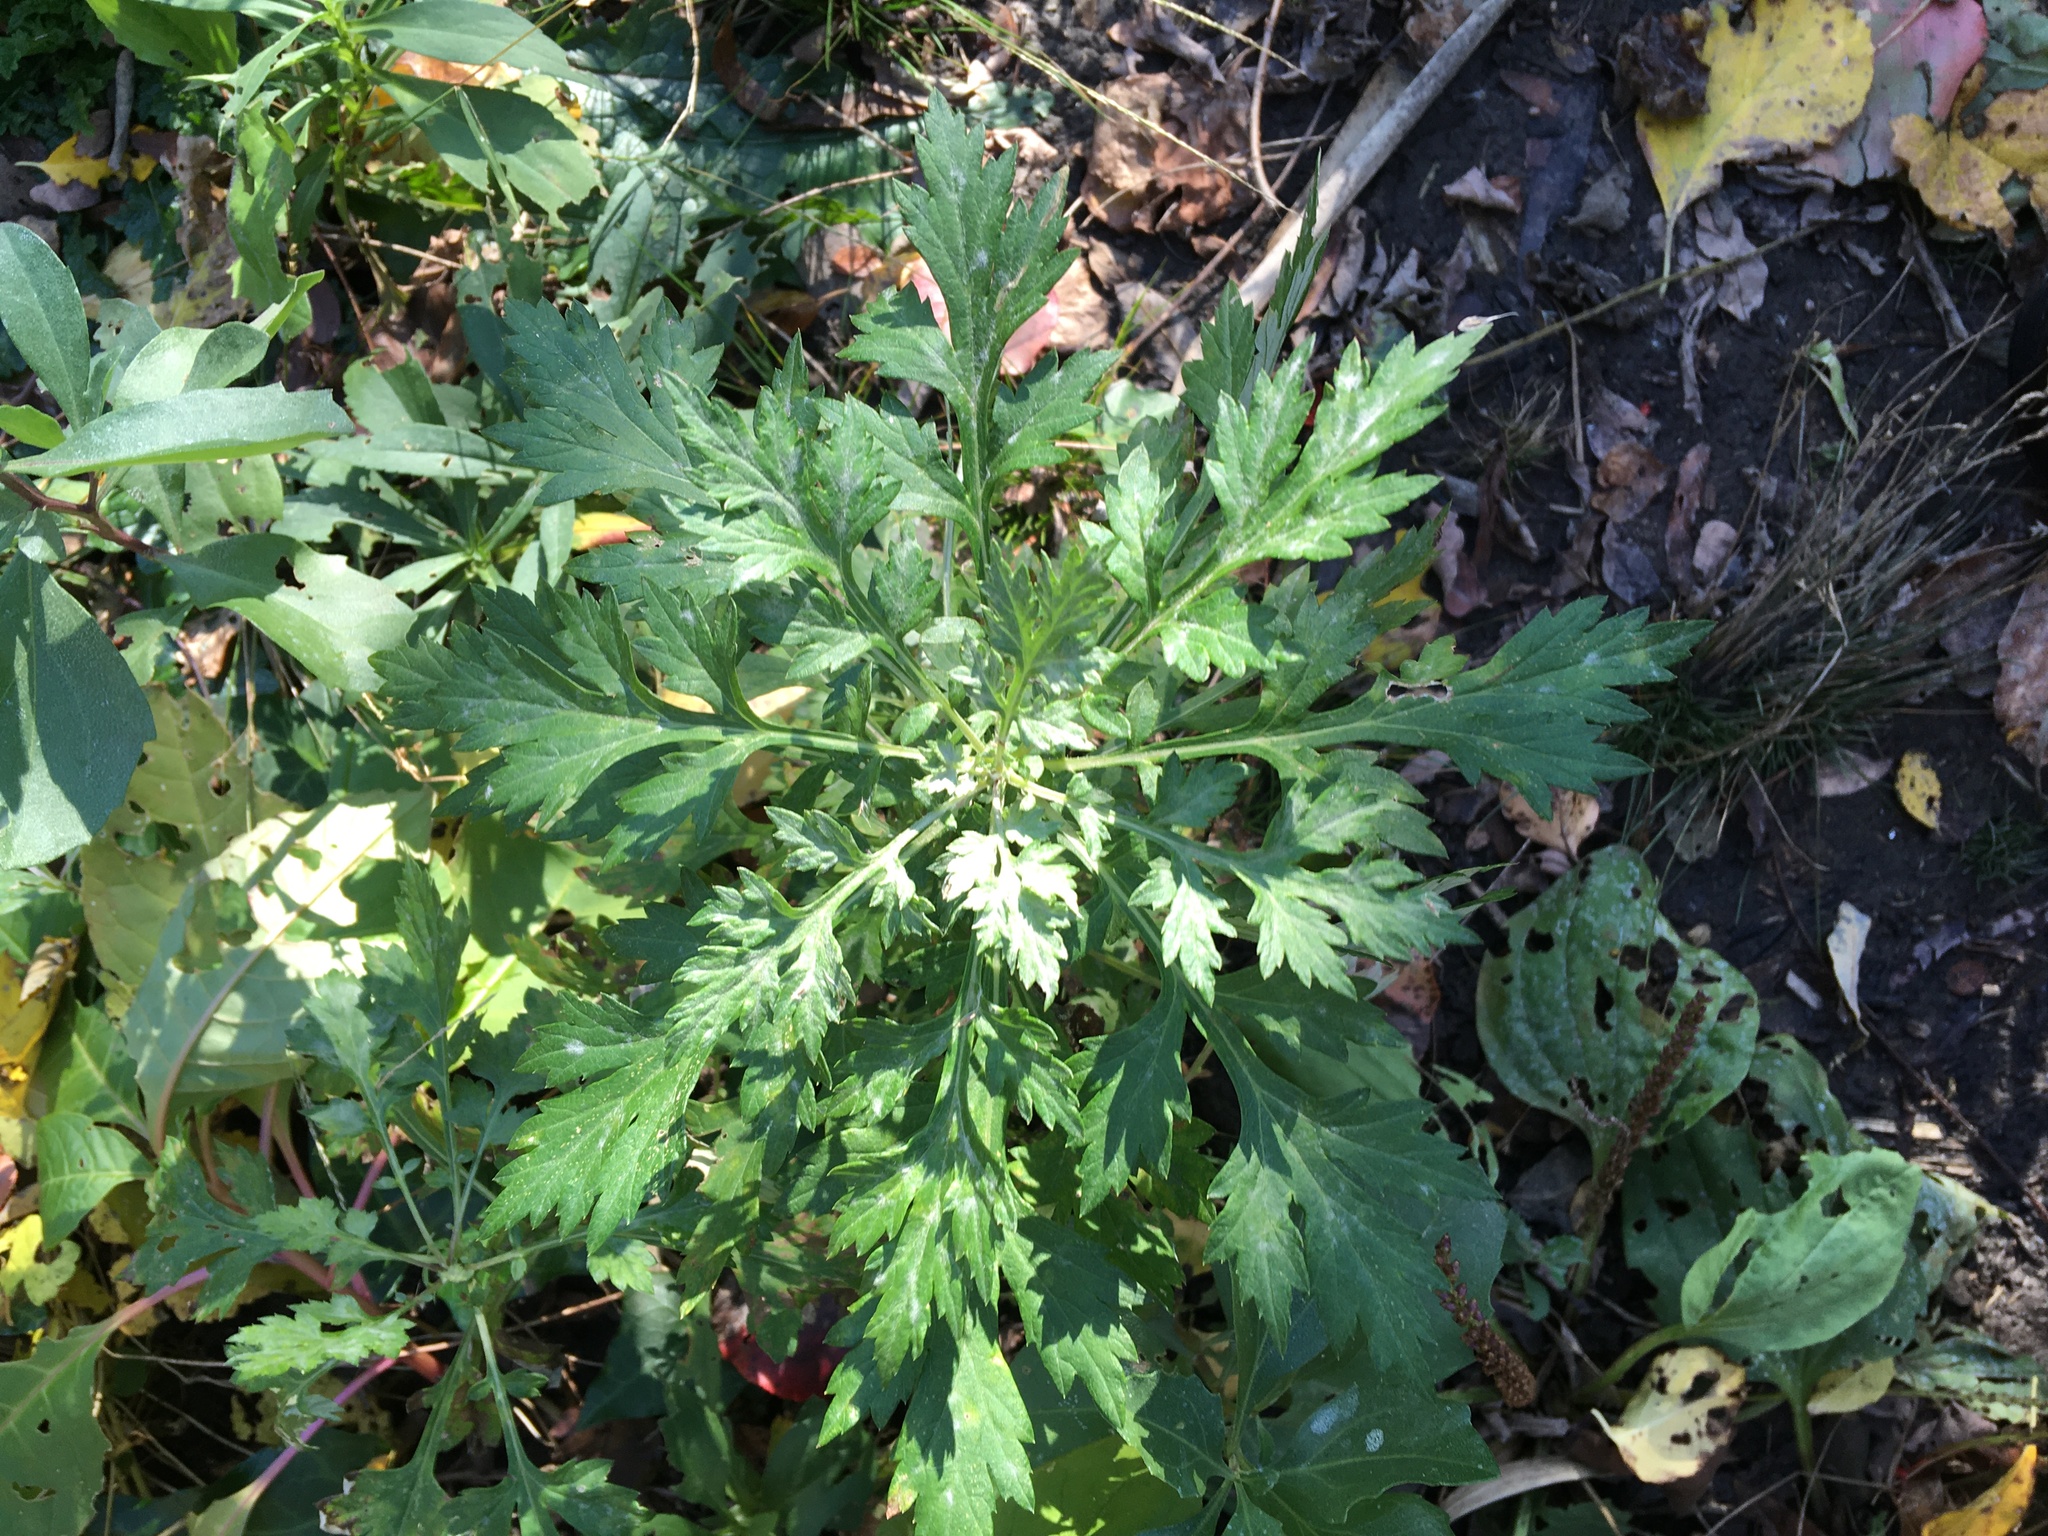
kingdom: Plantae
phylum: Tracheophyta
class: Magnoliopsida
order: Asterales
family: Asteraceae
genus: Artemisia
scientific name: Artemisia vulgaris
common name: Mugwort
